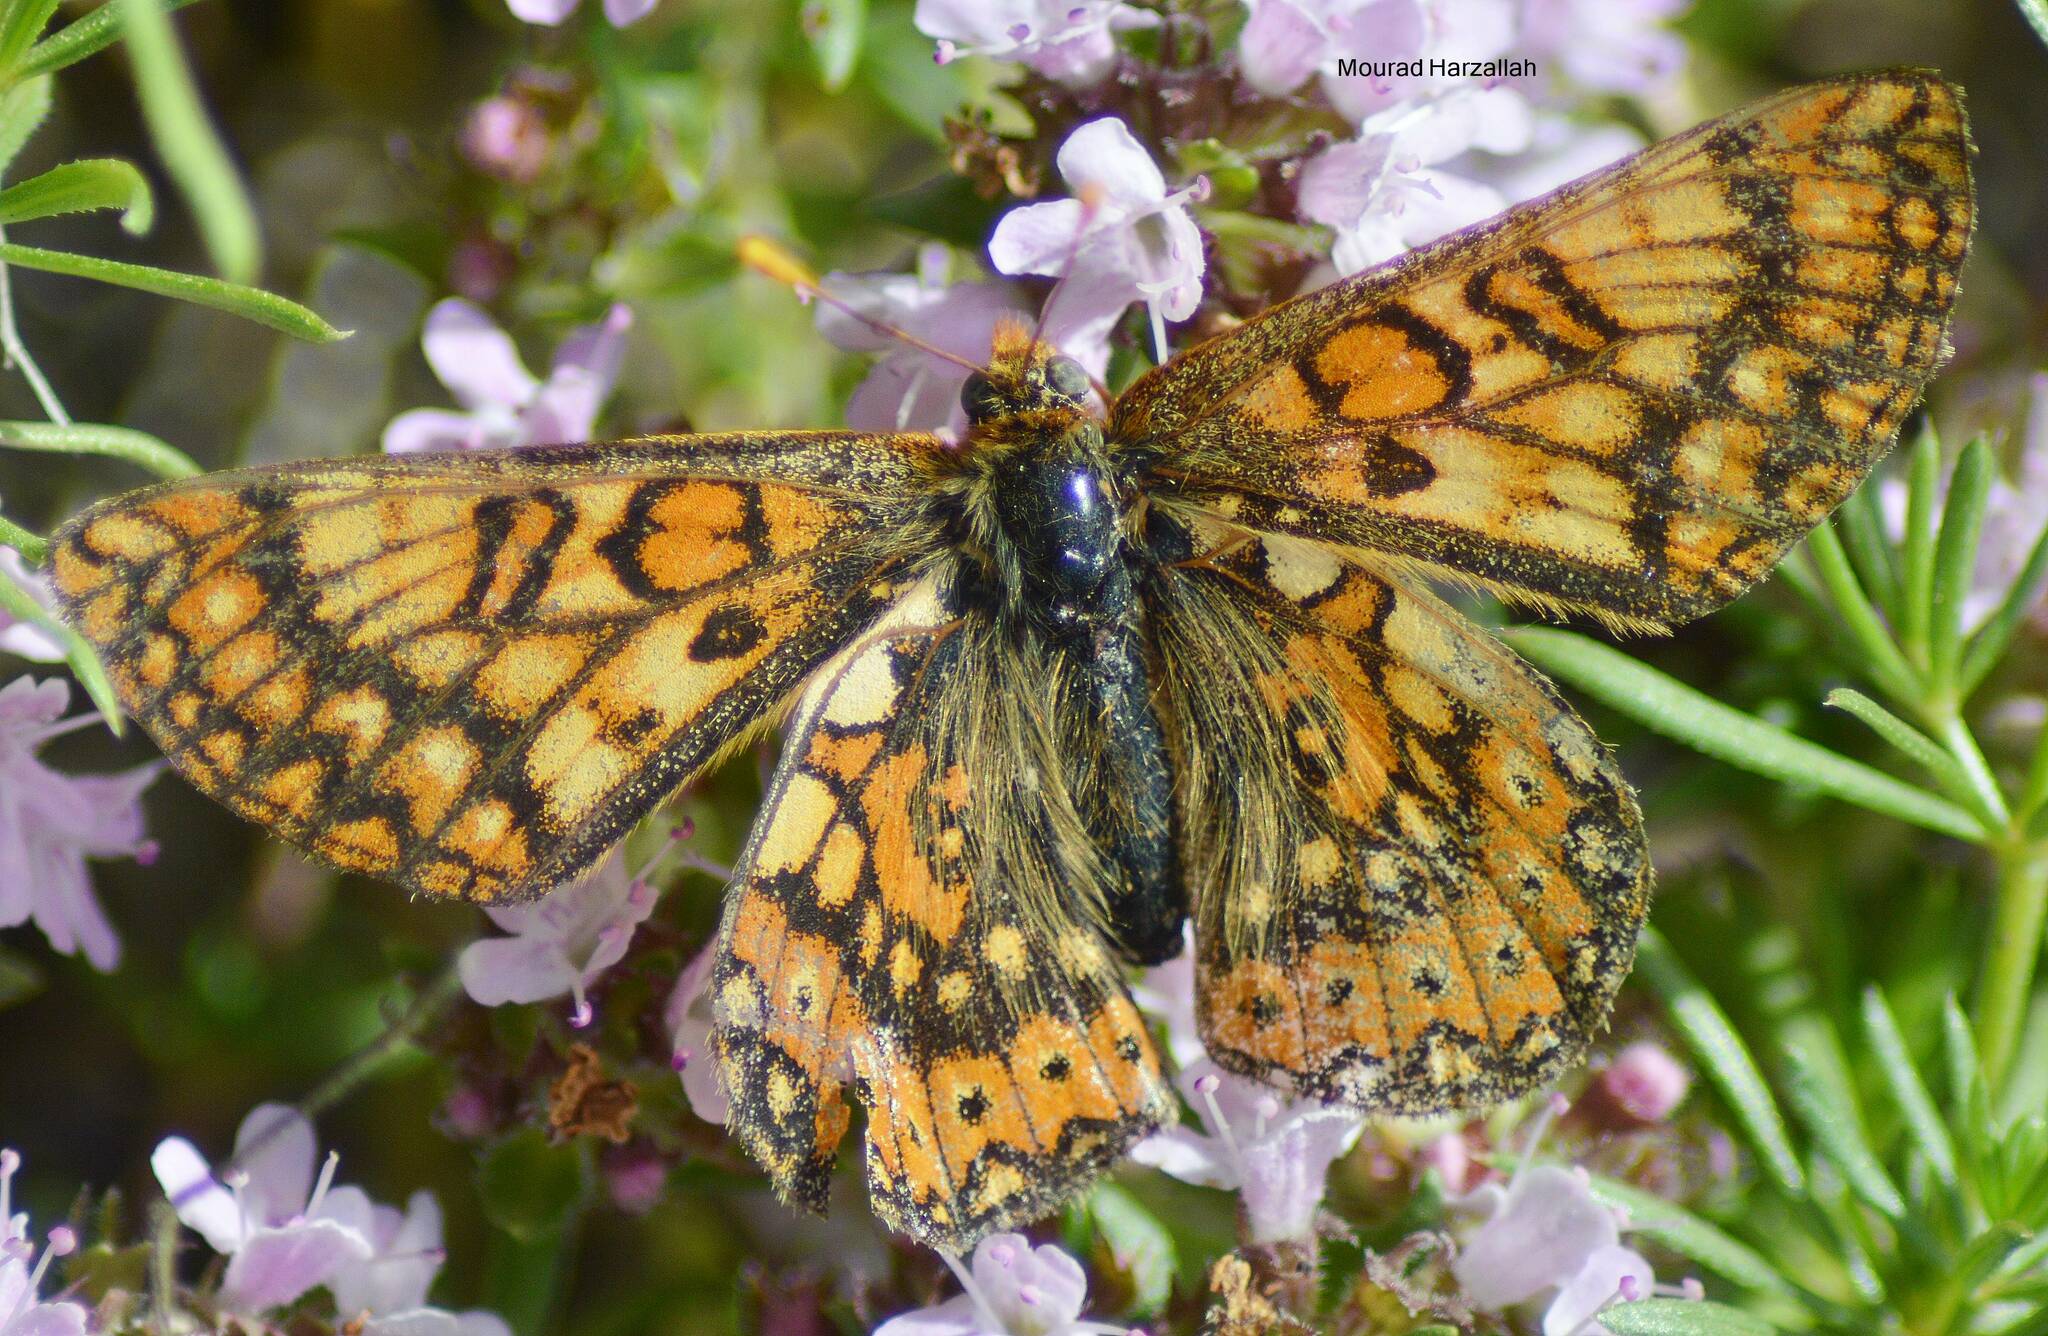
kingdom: Animalia
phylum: Arthropoda
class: Insecta
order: Lepidoptera
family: Nymphalidae
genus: Euphydryas
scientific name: Euphydryas aurinia
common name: Marsh fritillary
